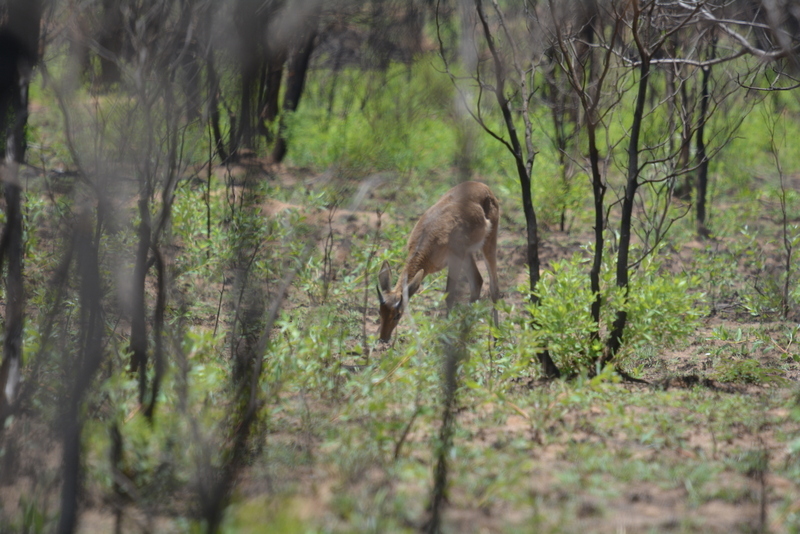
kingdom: Animalia
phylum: Chordata
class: Mammalia
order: Artiodactyla
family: Bovidae
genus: Redunca
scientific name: Redunca arundinum
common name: Southern reedbuck
